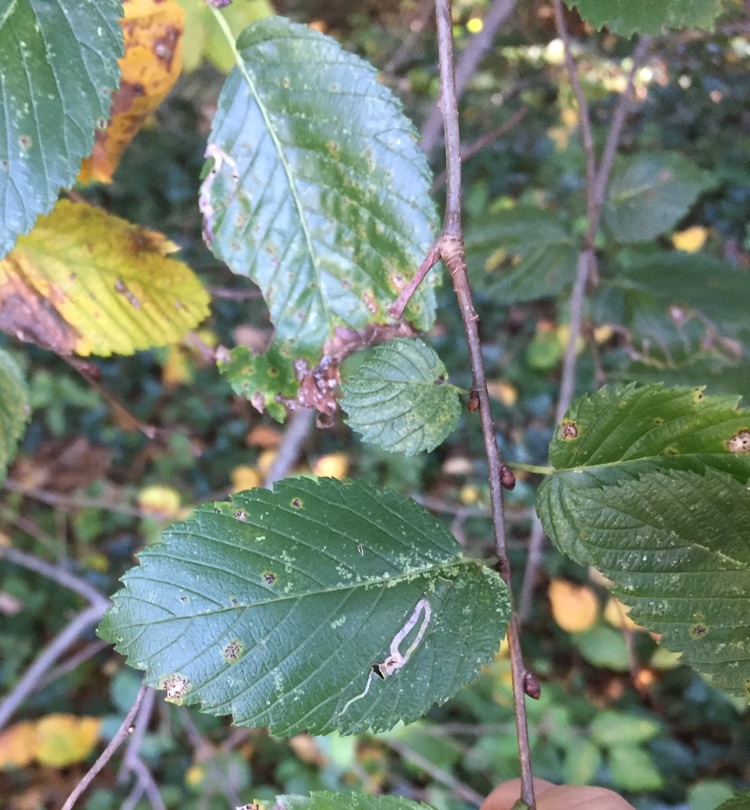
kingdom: Animalia
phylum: Arthropoda
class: Insecta
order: Diptera
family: Agromyzidae
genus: Agromyza
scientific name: Agromyza aristata
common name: Elm agromyzid leafminer
